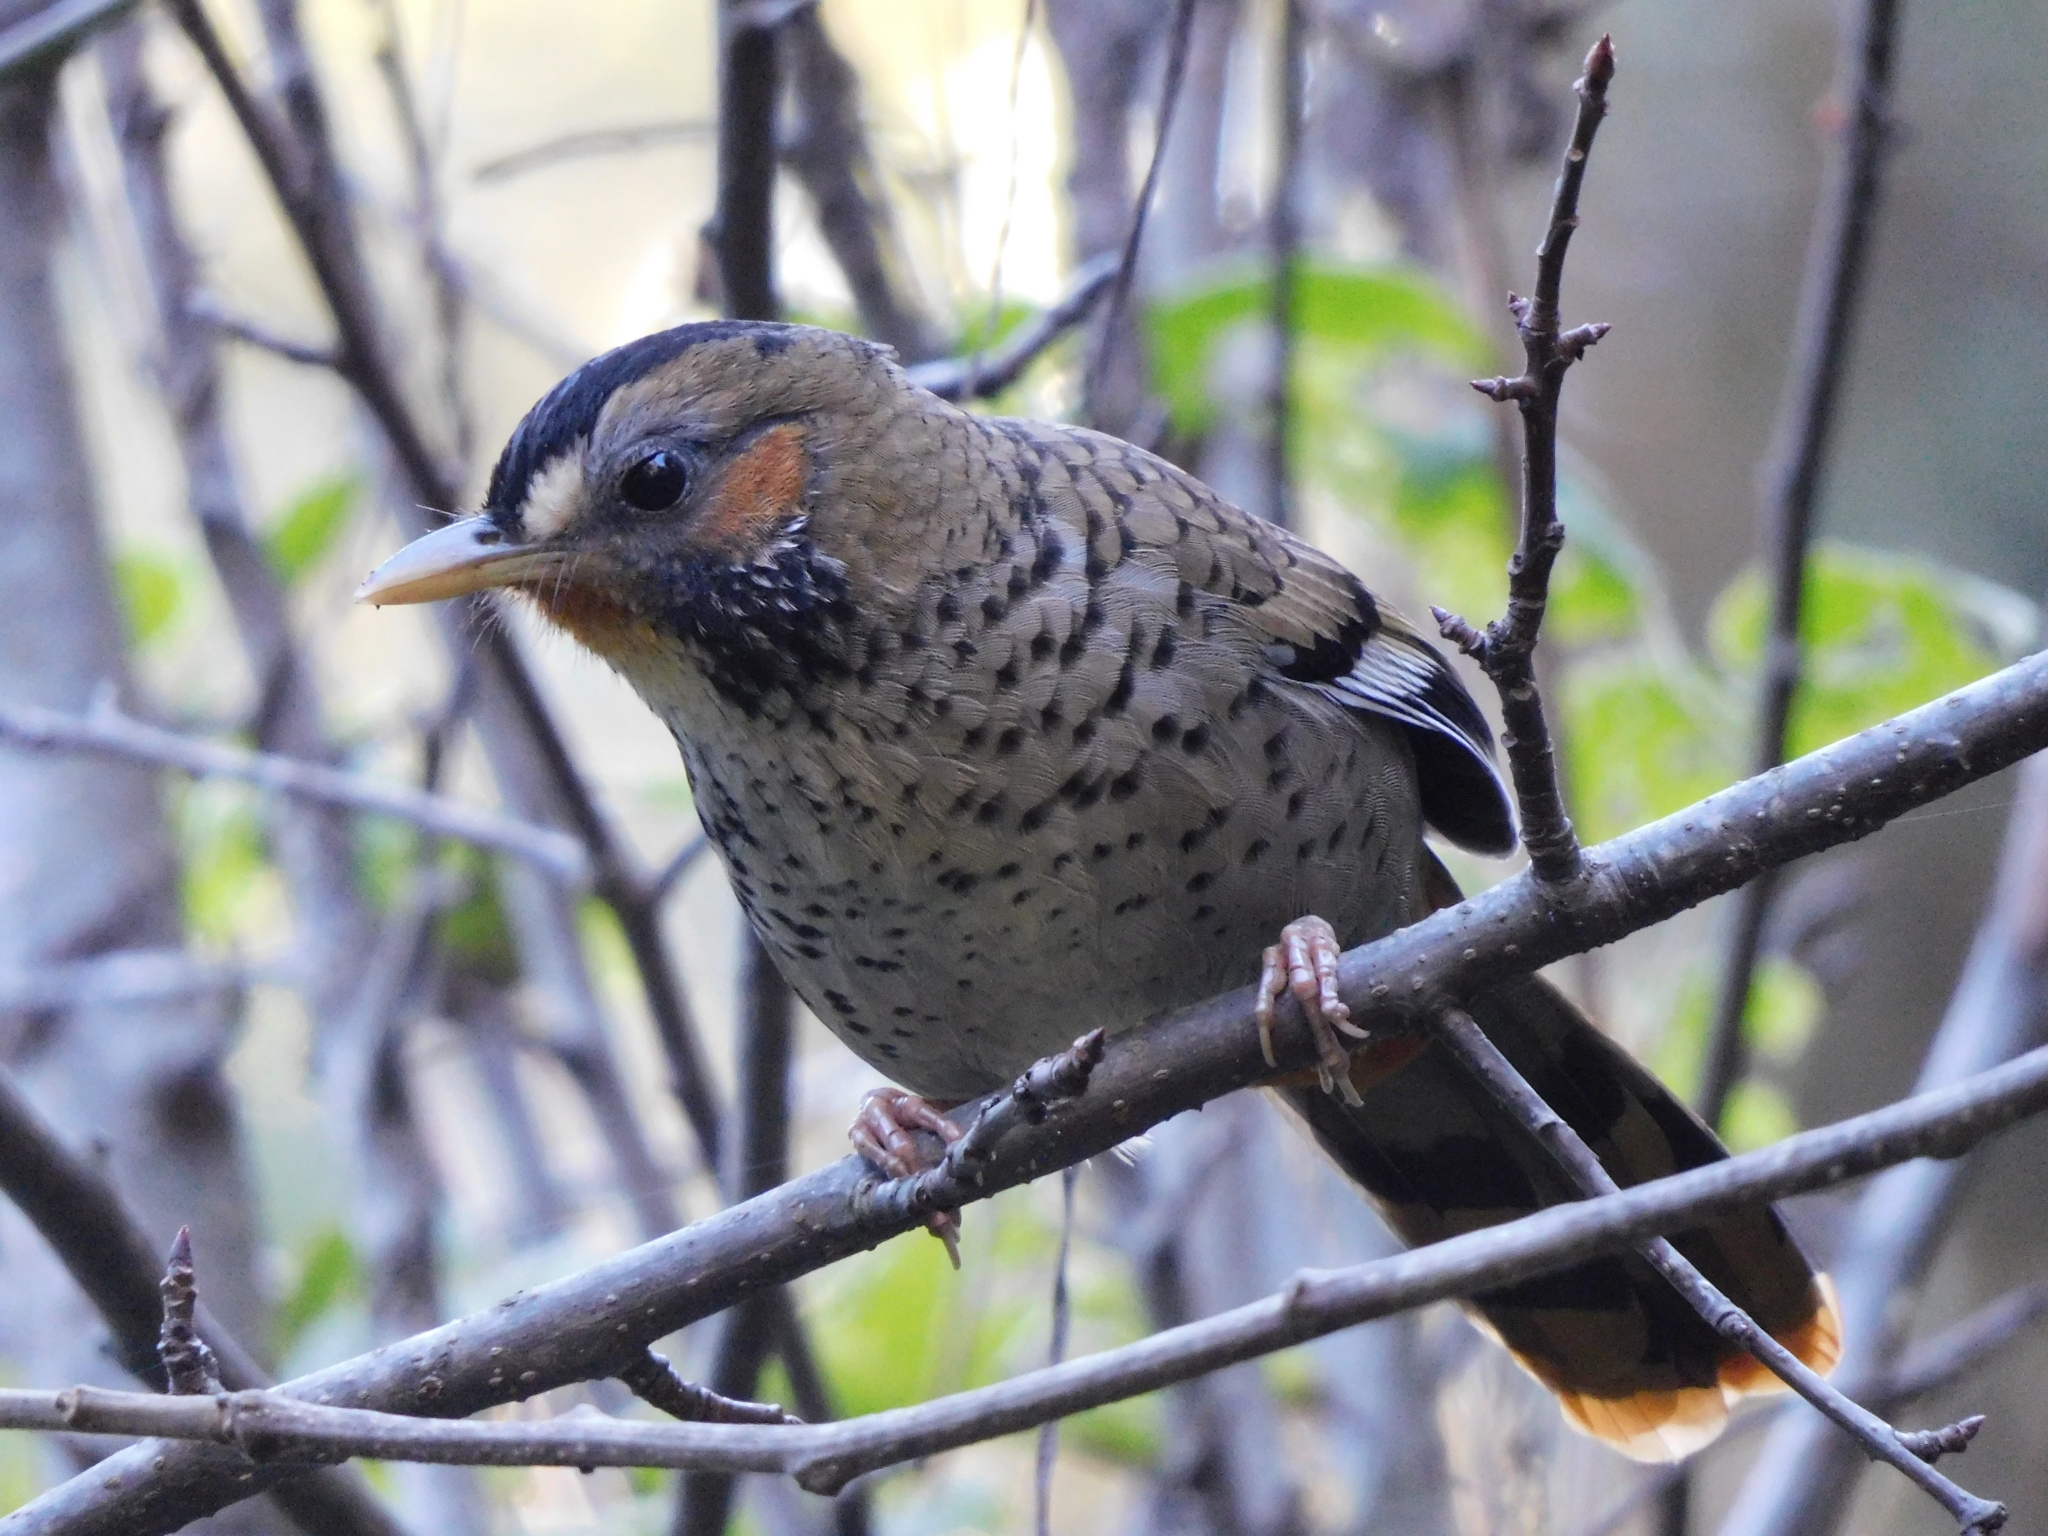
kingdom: Animalia
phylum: Chordata
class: Aves
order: Passeriformes
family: Leiothrichidae
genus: Garrulax
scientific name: Garrulax rufogularis
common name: Rufous-chinned laughingthrush
